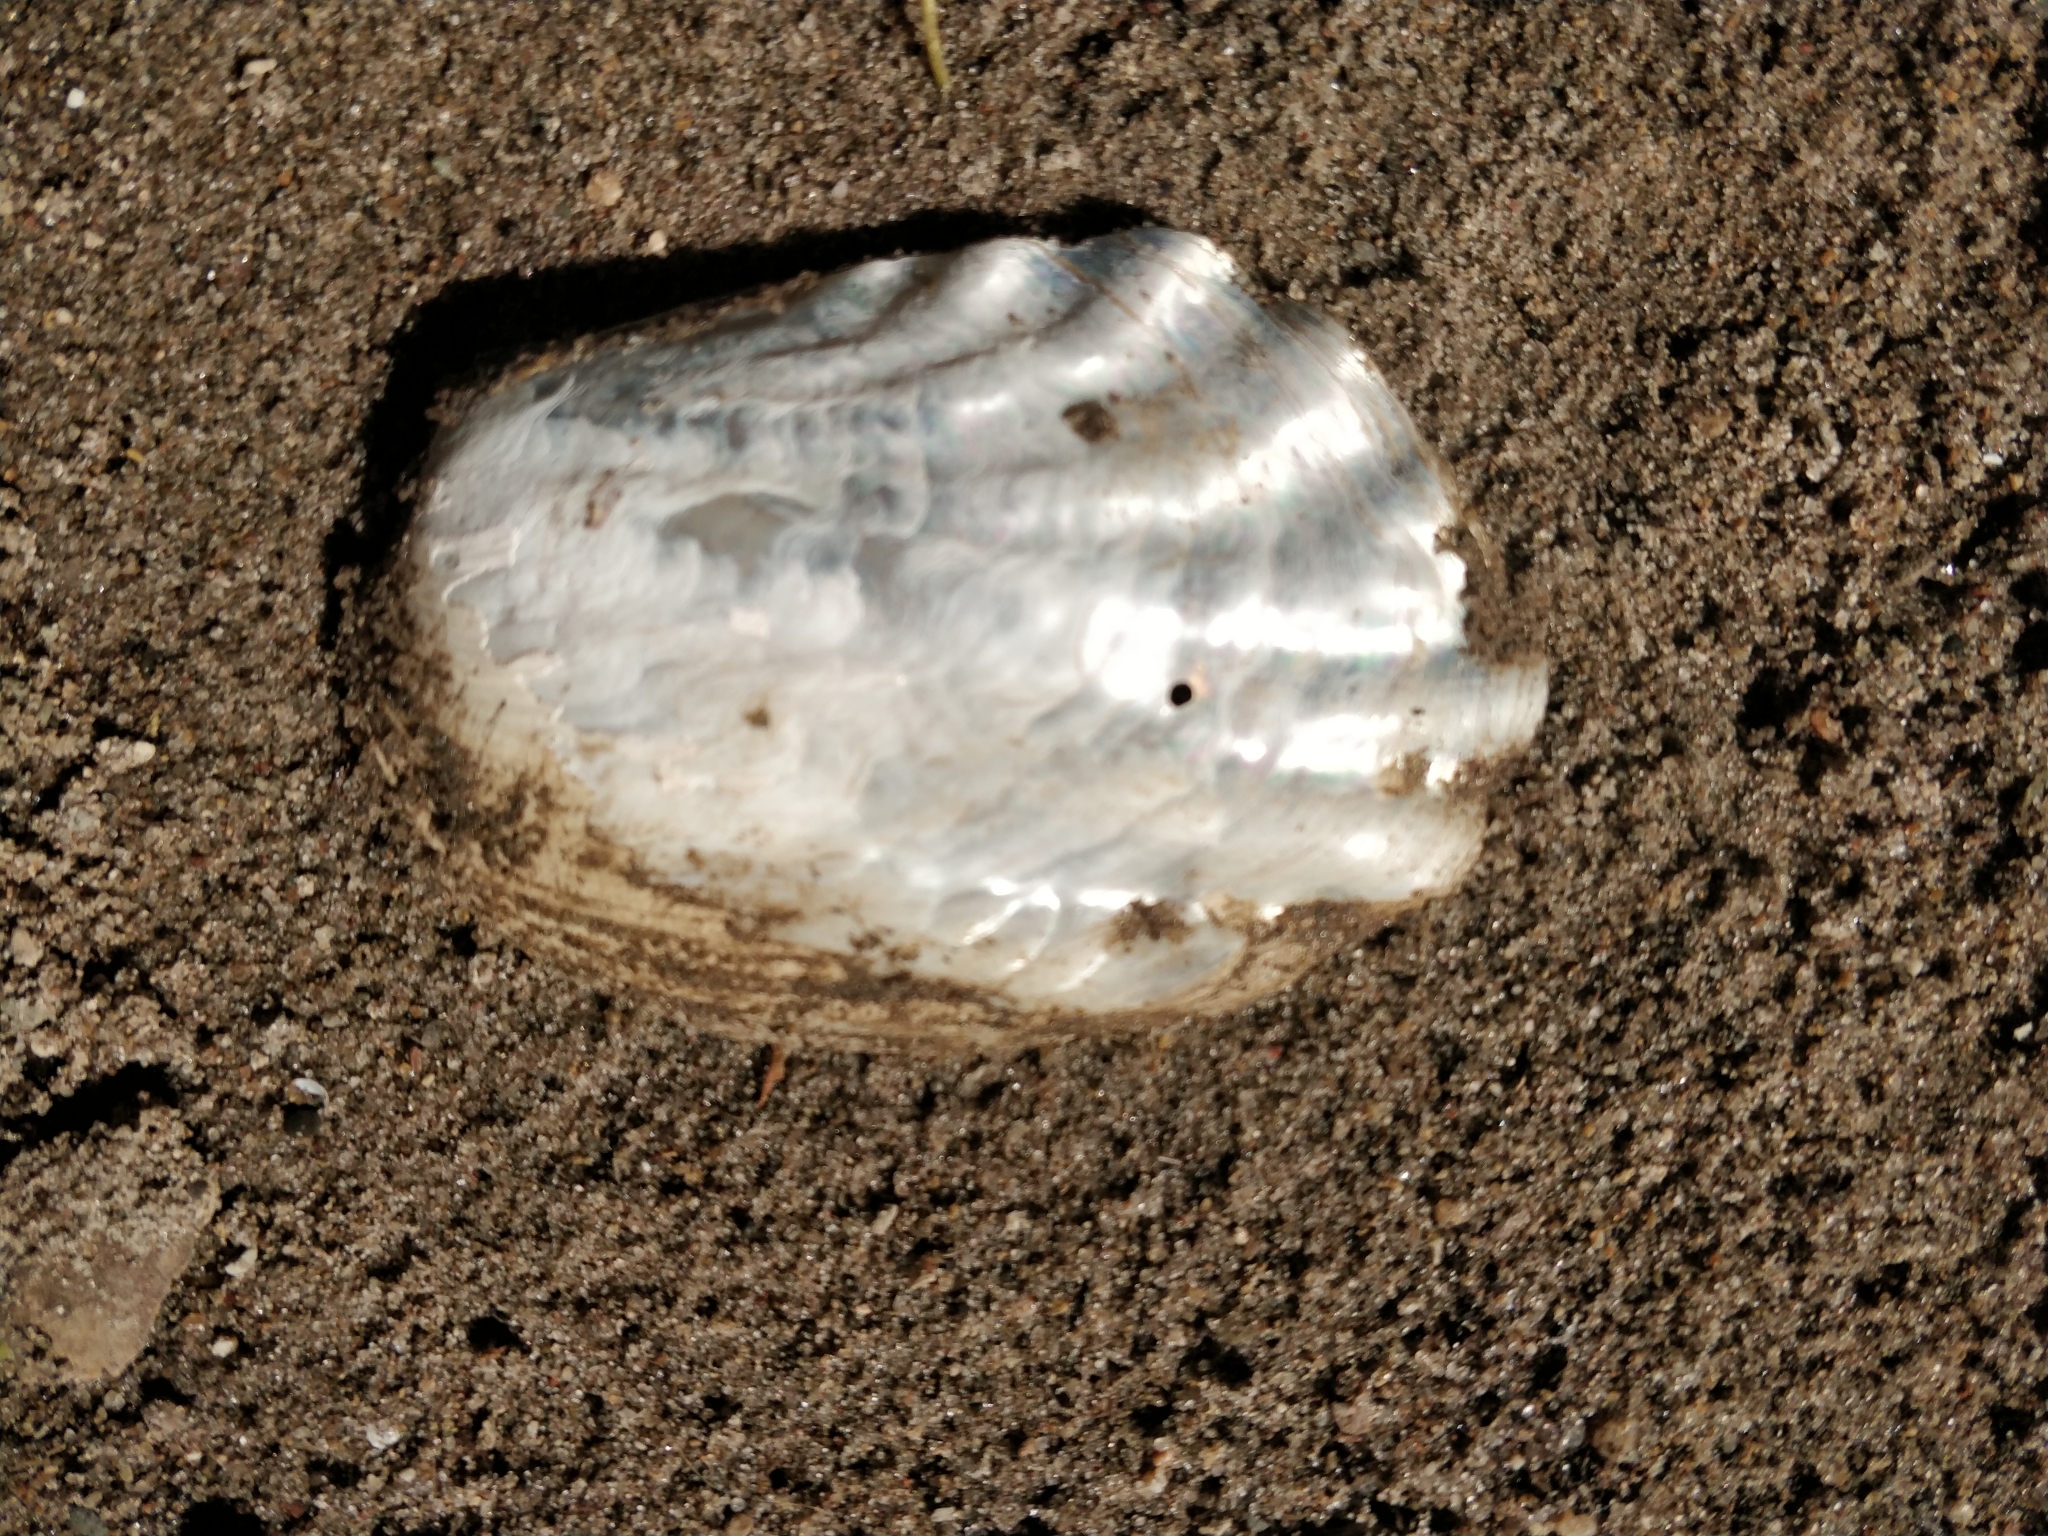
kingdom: Animalia
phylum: Mollusca
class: Bivalvia
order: Unionida
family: Unionidae
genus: Amblema
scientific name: Amblema plicata
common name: Threeridge
